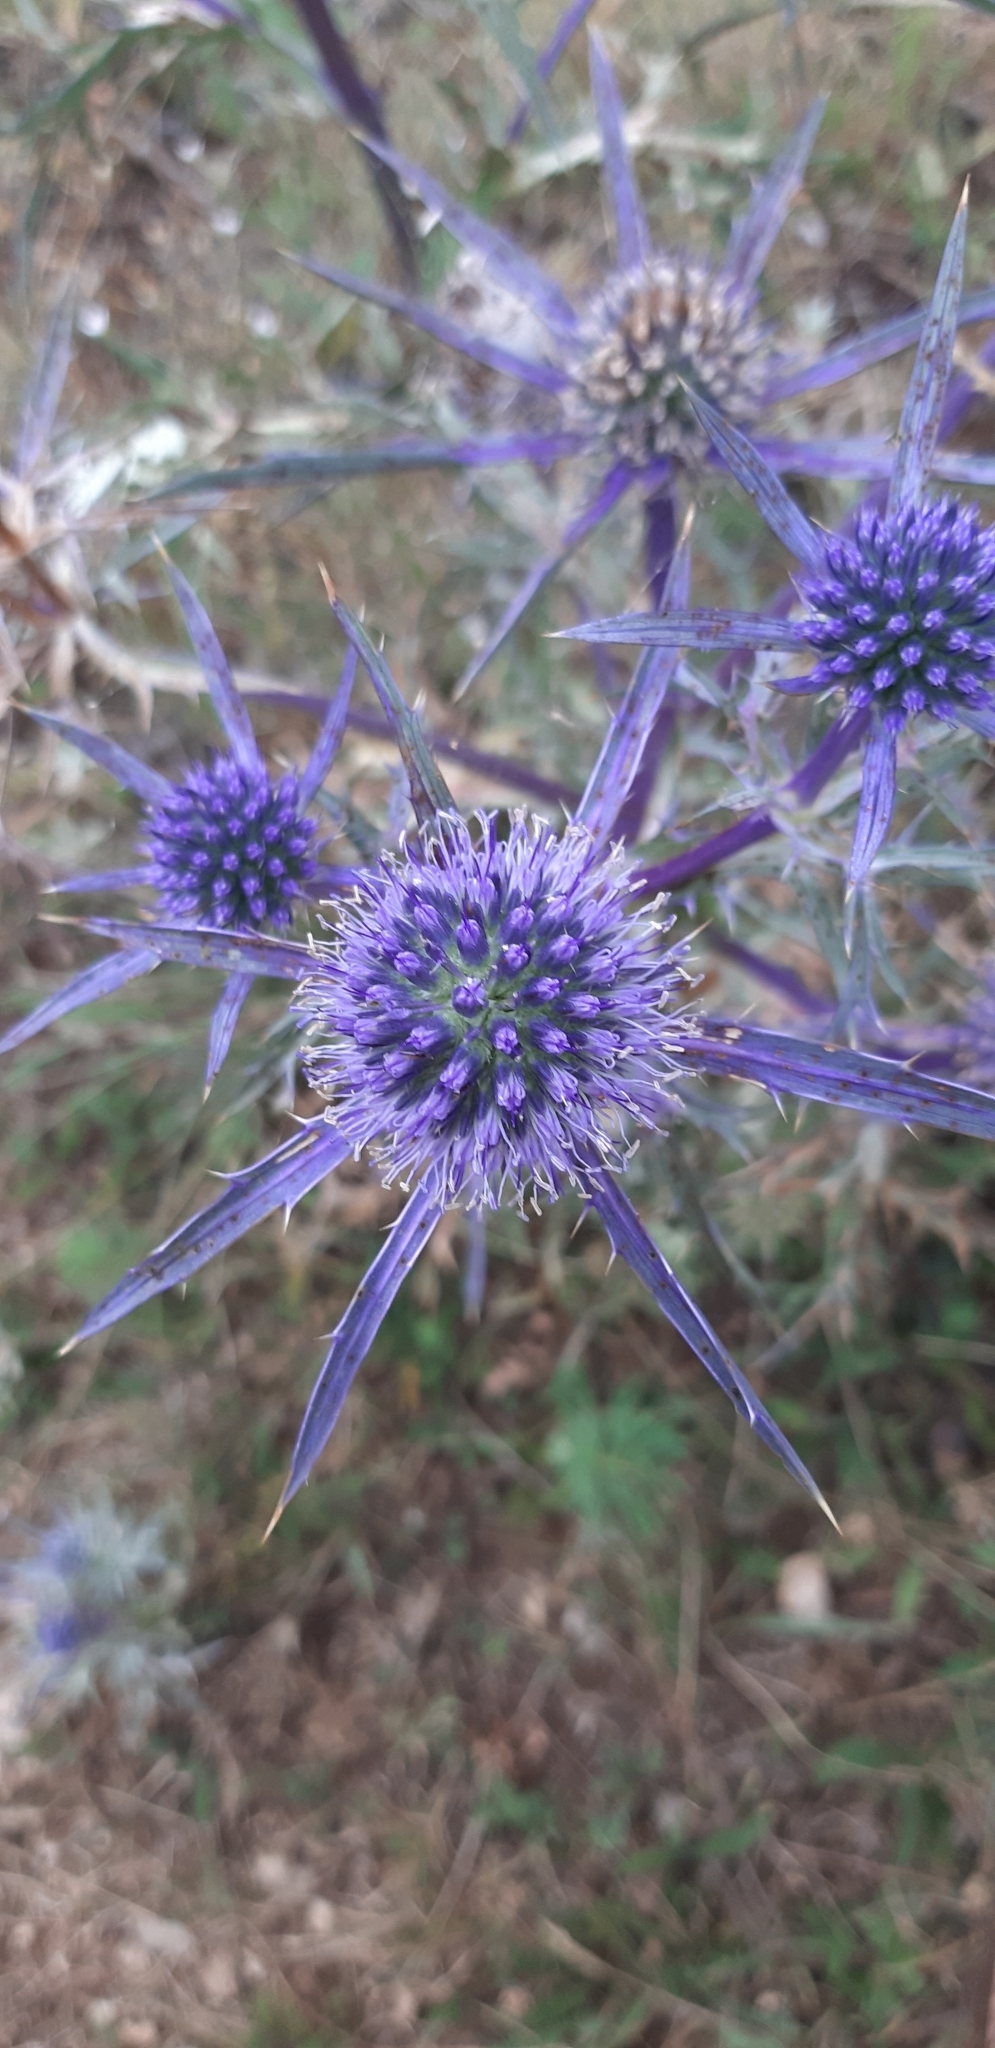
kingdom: Plantae
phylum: Tracheophyta
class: Magnoliopsida
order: Apiales
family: Apiaceae
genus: Eryngium
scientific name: Eryngium amethystinum
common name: Amethyst eryngo
